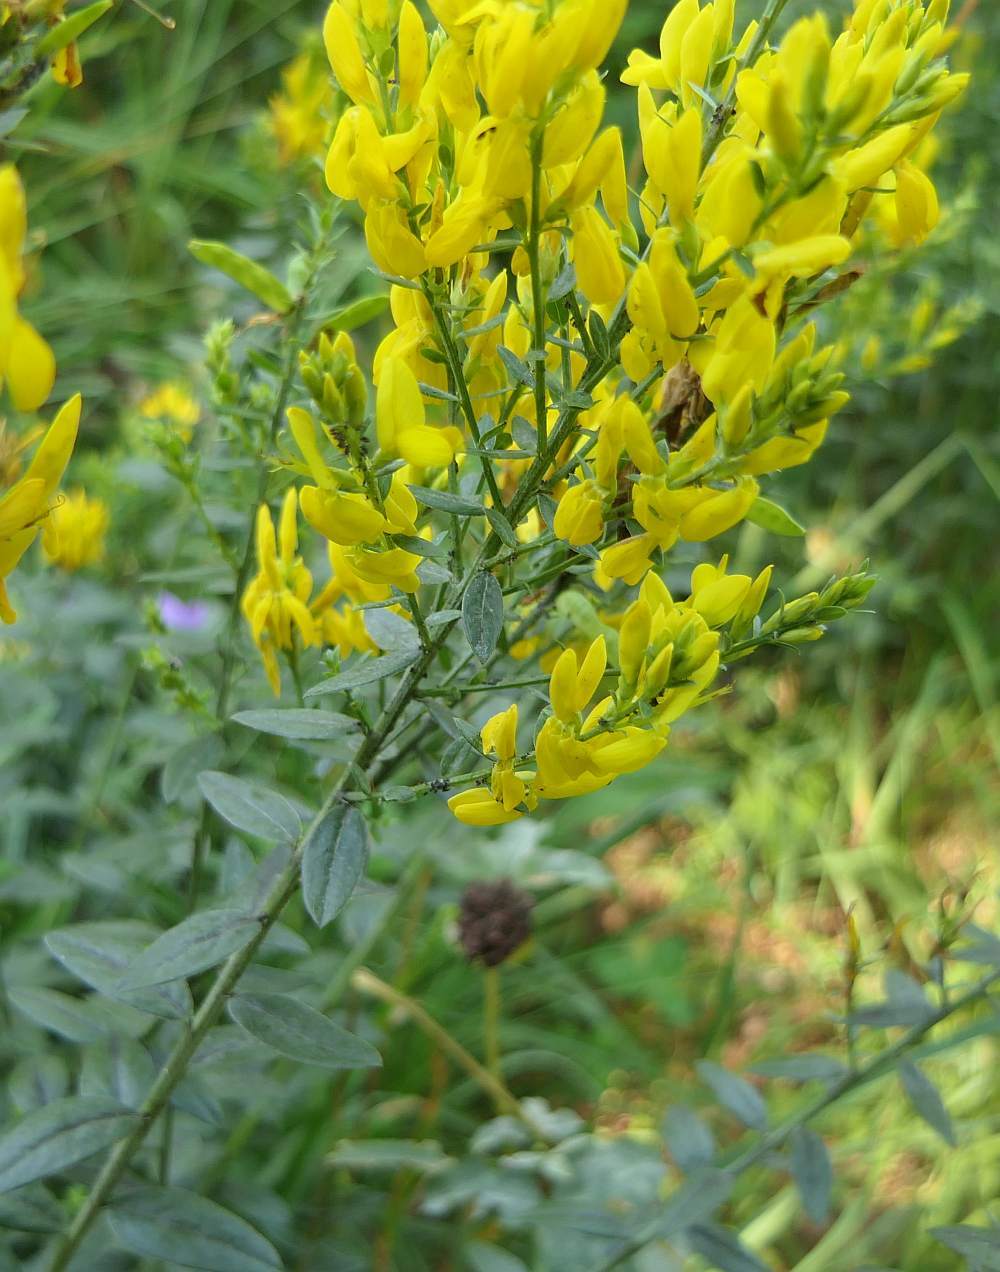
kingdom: Plantae
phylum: Tracheophyta
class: Magnoliopsida
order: Fabales
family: Fabaceae
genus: Genista
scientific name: Genista tinctoria
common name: Dyer's greenweed
